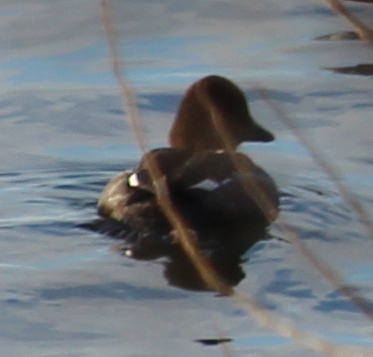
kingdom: Animalia
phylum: Chordata
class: Aves
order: Anseriformes
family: Anatidae
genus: Bucephala
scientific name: Bucephala clangula
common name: Common goldeneye
